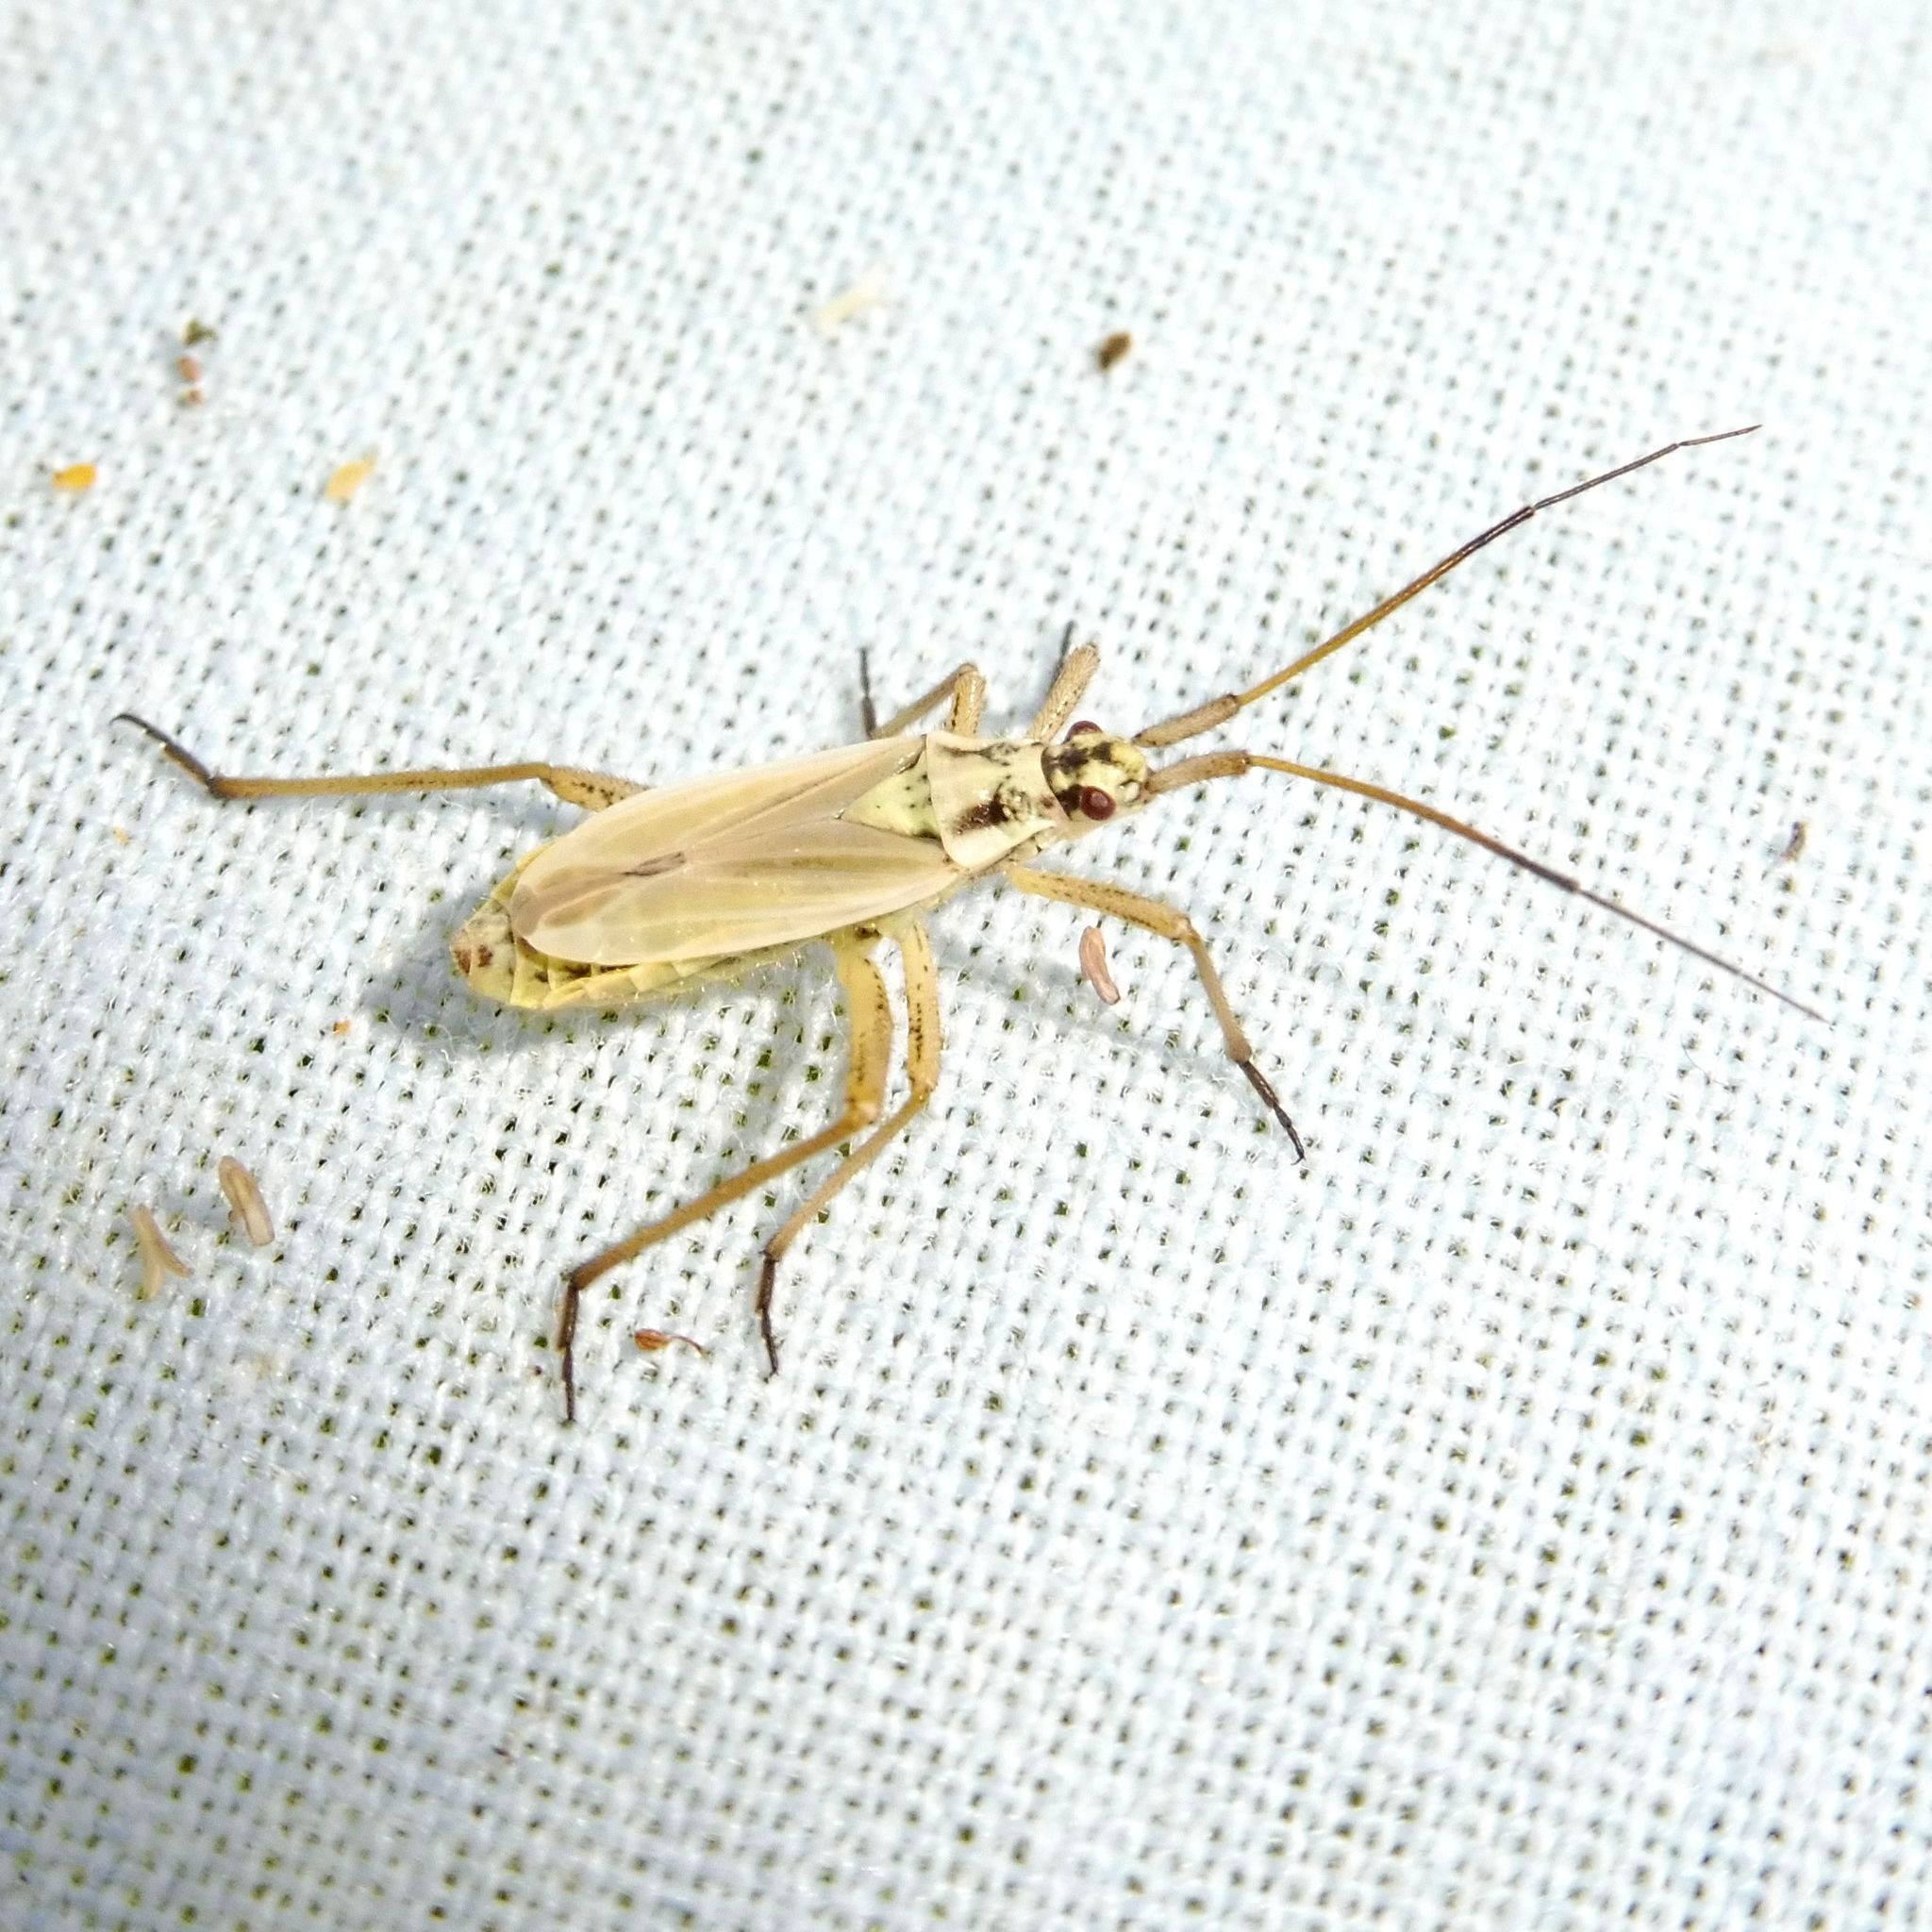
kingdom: Animalia
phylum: Arthropoda
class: Insecta
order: Hemiptera
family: Miridae
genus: Leptopterna
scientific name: Leptopterna dolabrata
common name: Meadow plant bug
